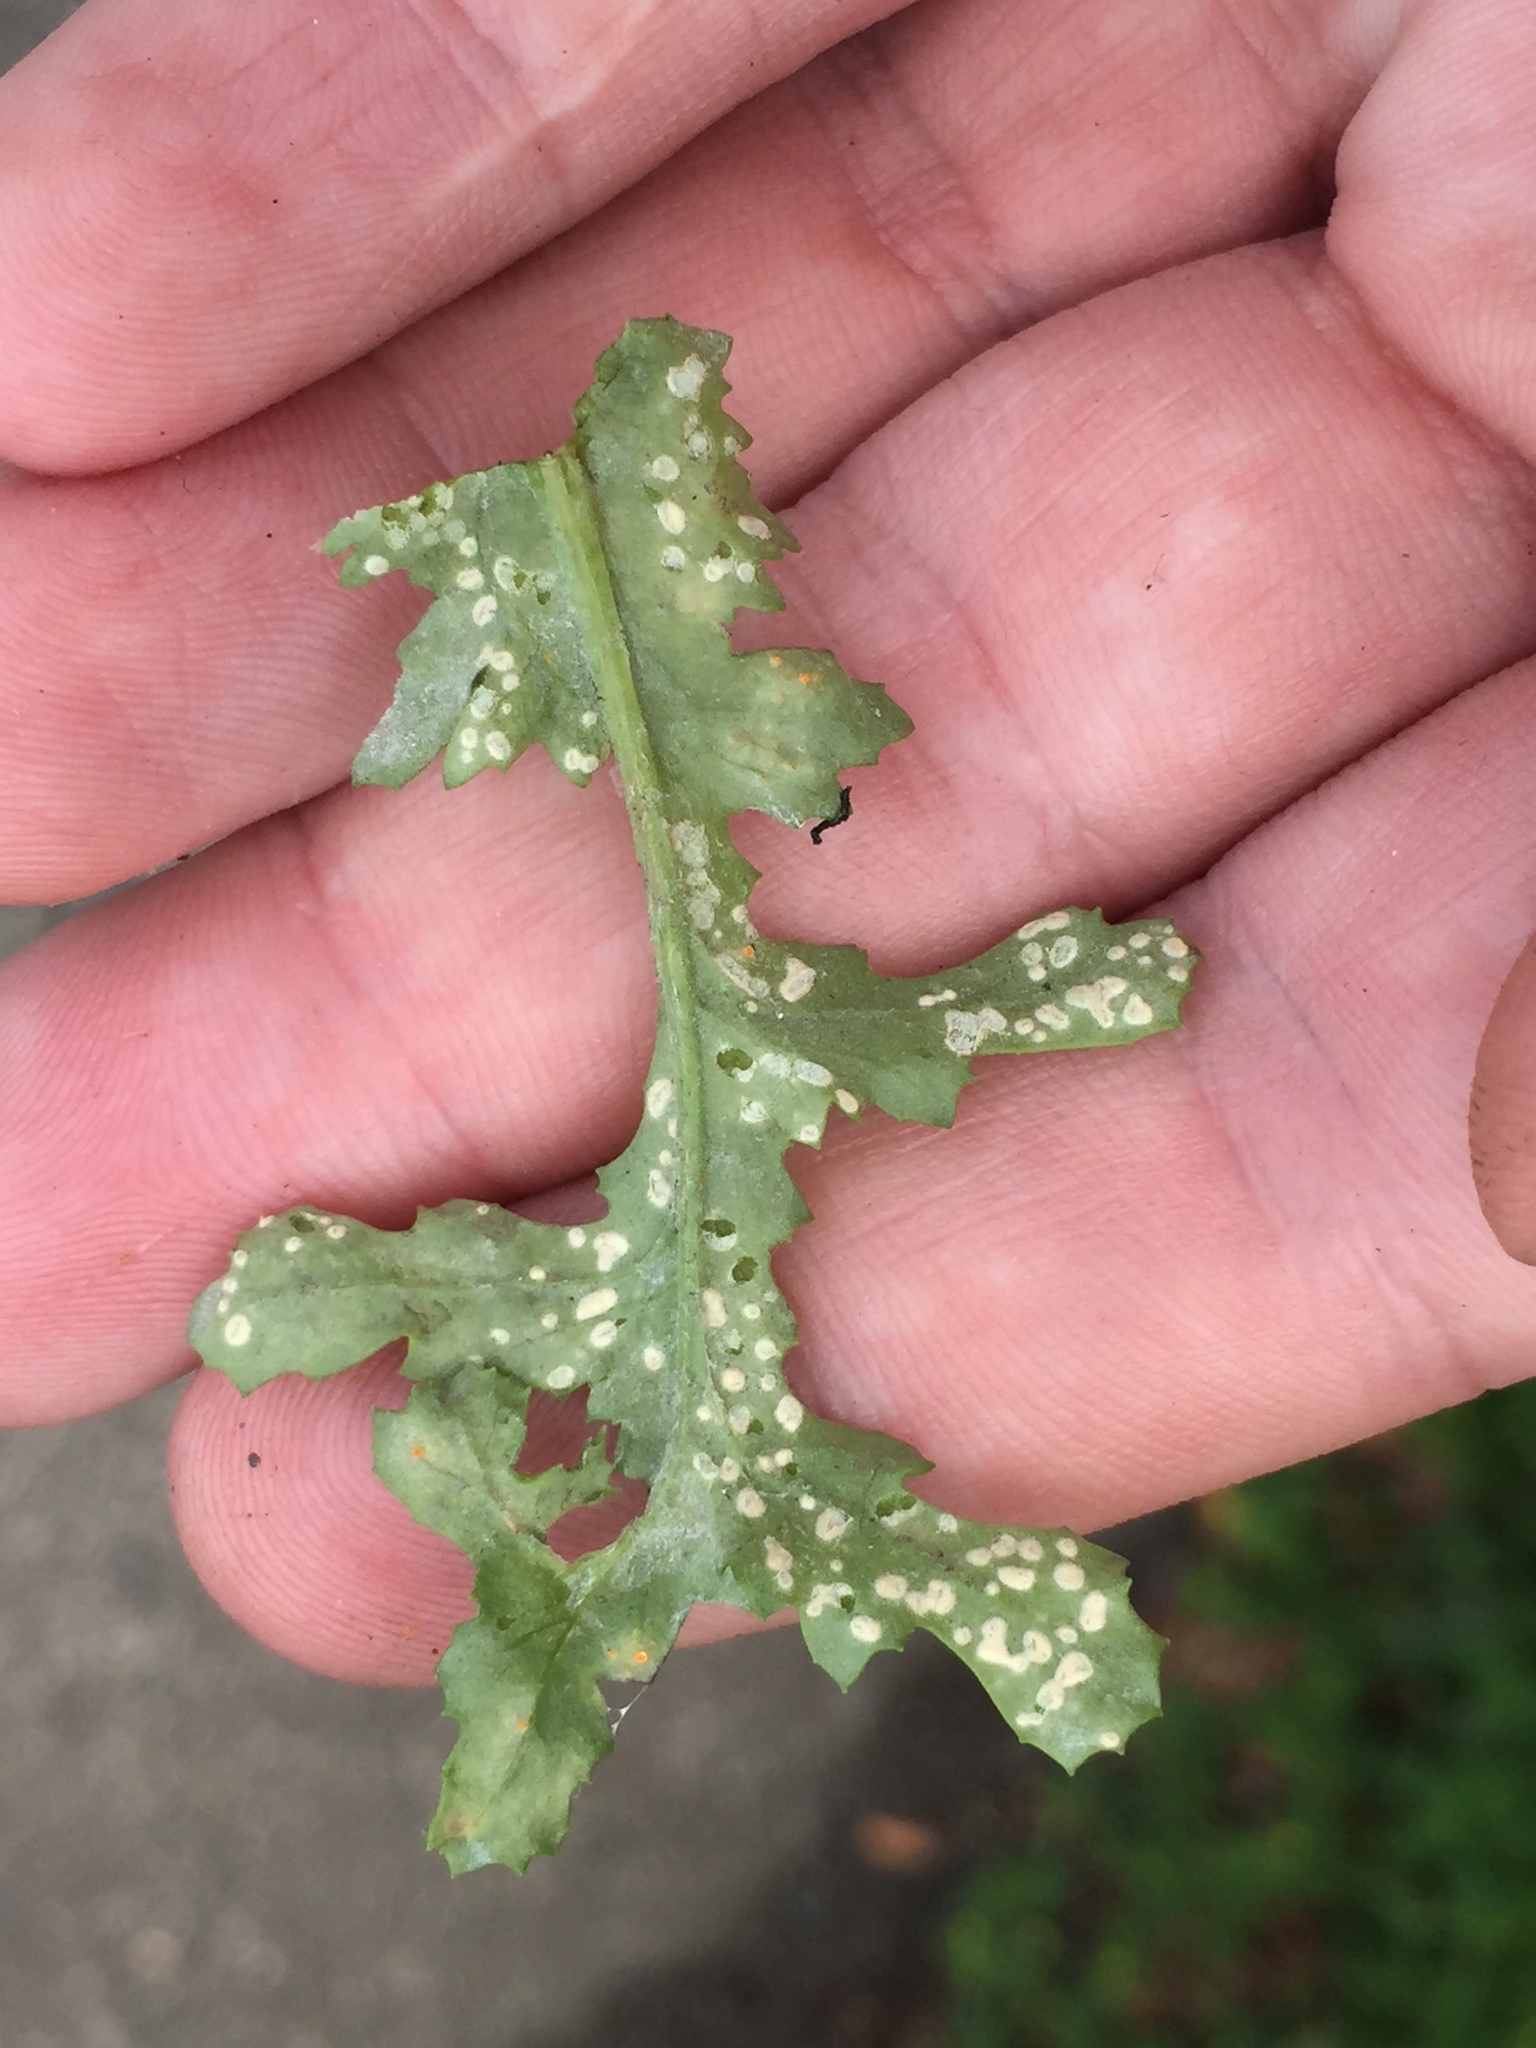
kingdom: Chromista
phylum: Oomycota
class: Peronosporea
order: Albuginales
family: Albuginaceae
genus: Pustula
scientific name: Pustula
